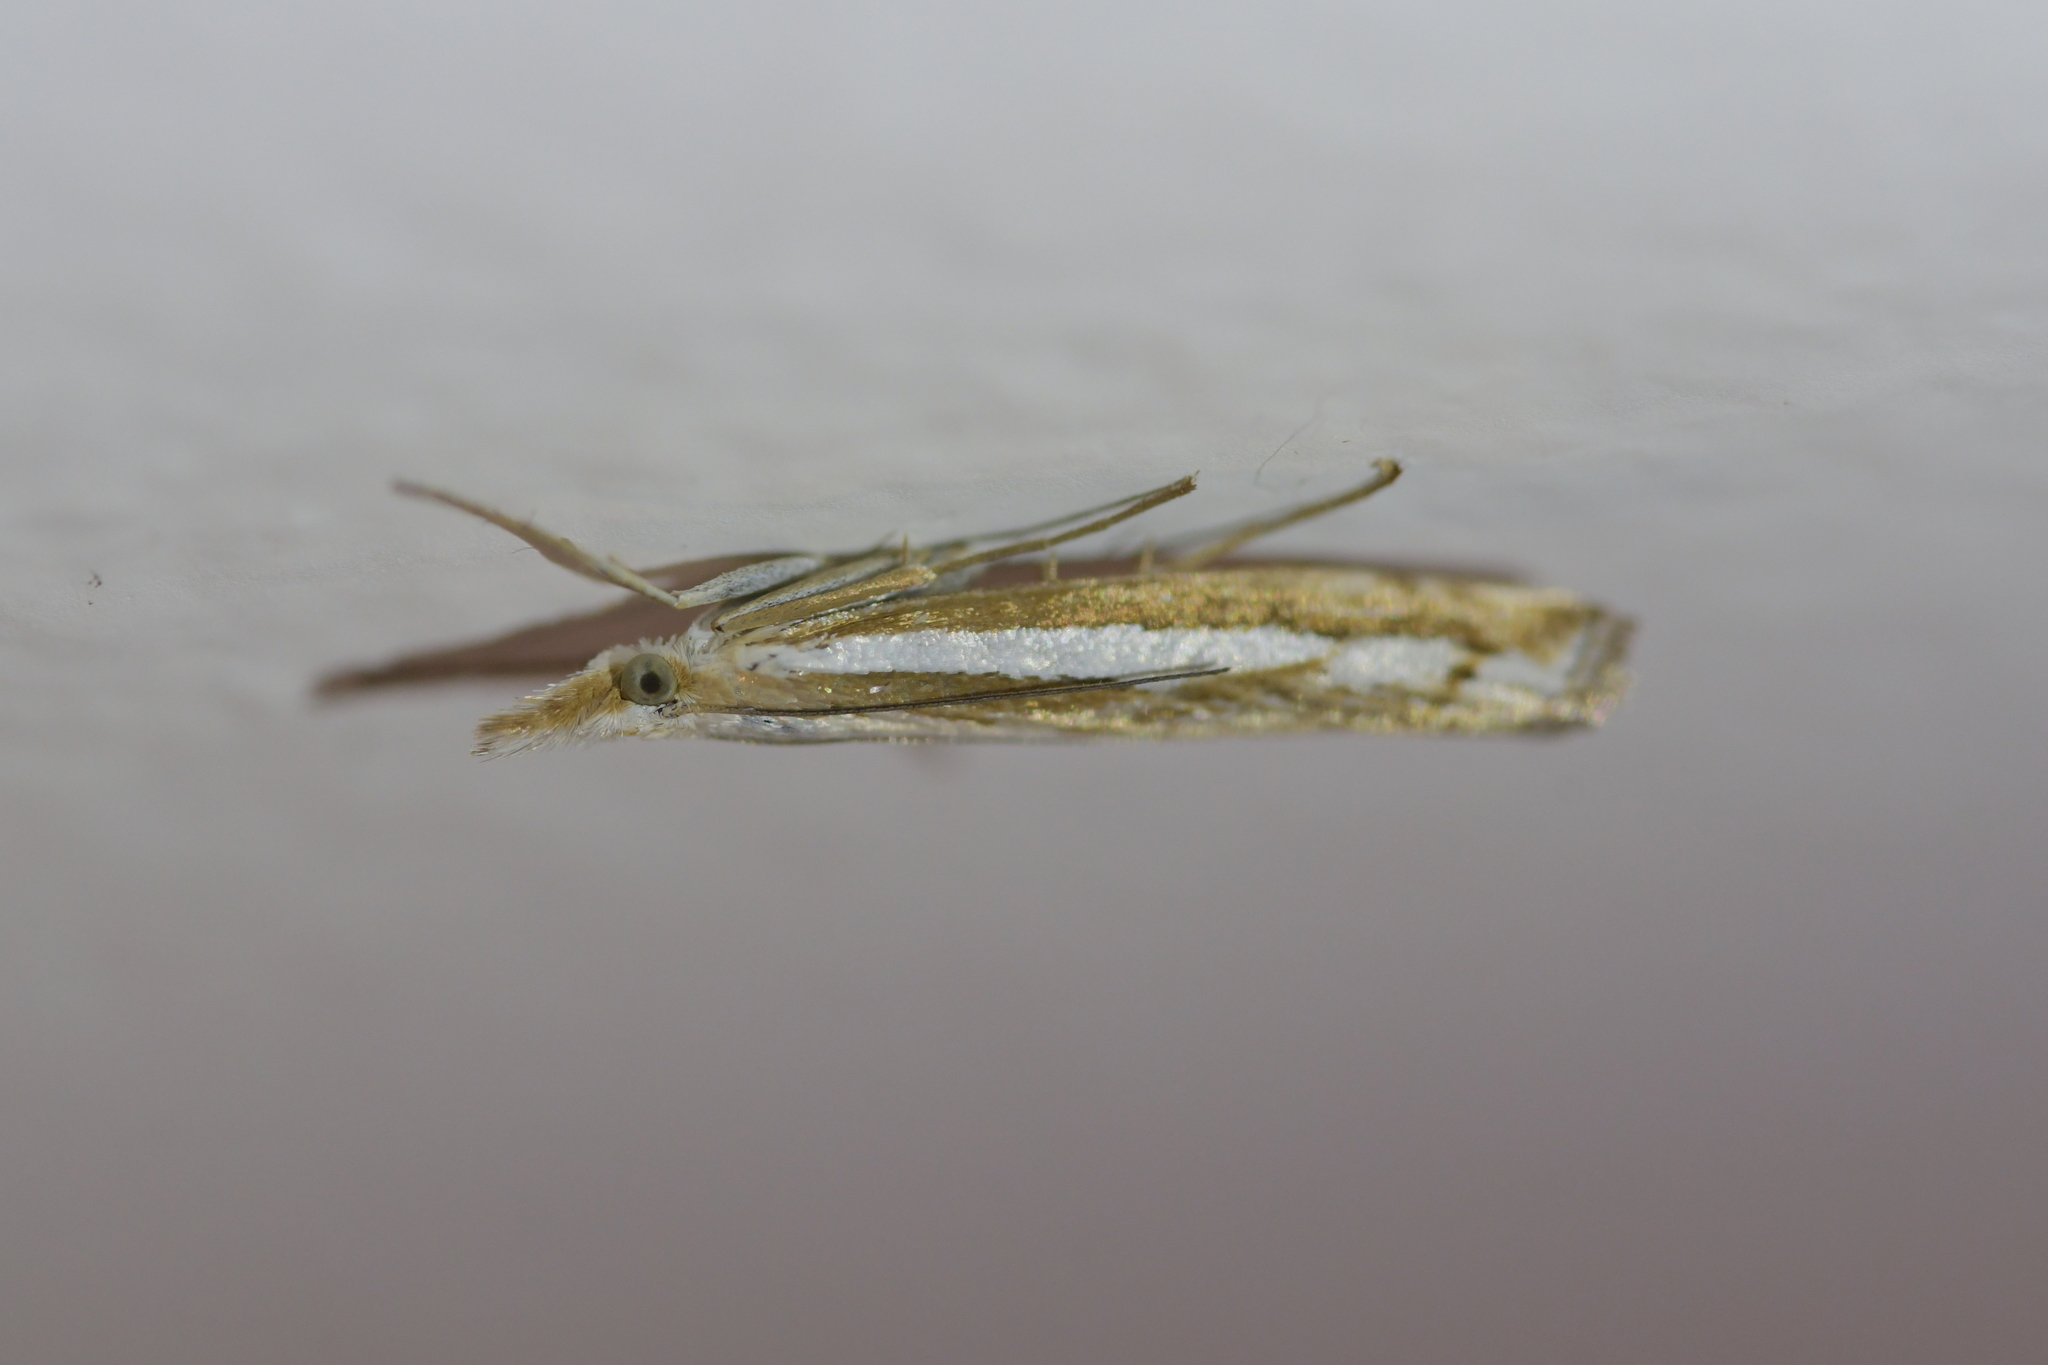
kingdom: Animalia
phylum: Arthropoda
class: Insecta
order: Lepidoptera
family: Crambidae
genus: Orocrambus
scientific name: Orocrambus vittellus
